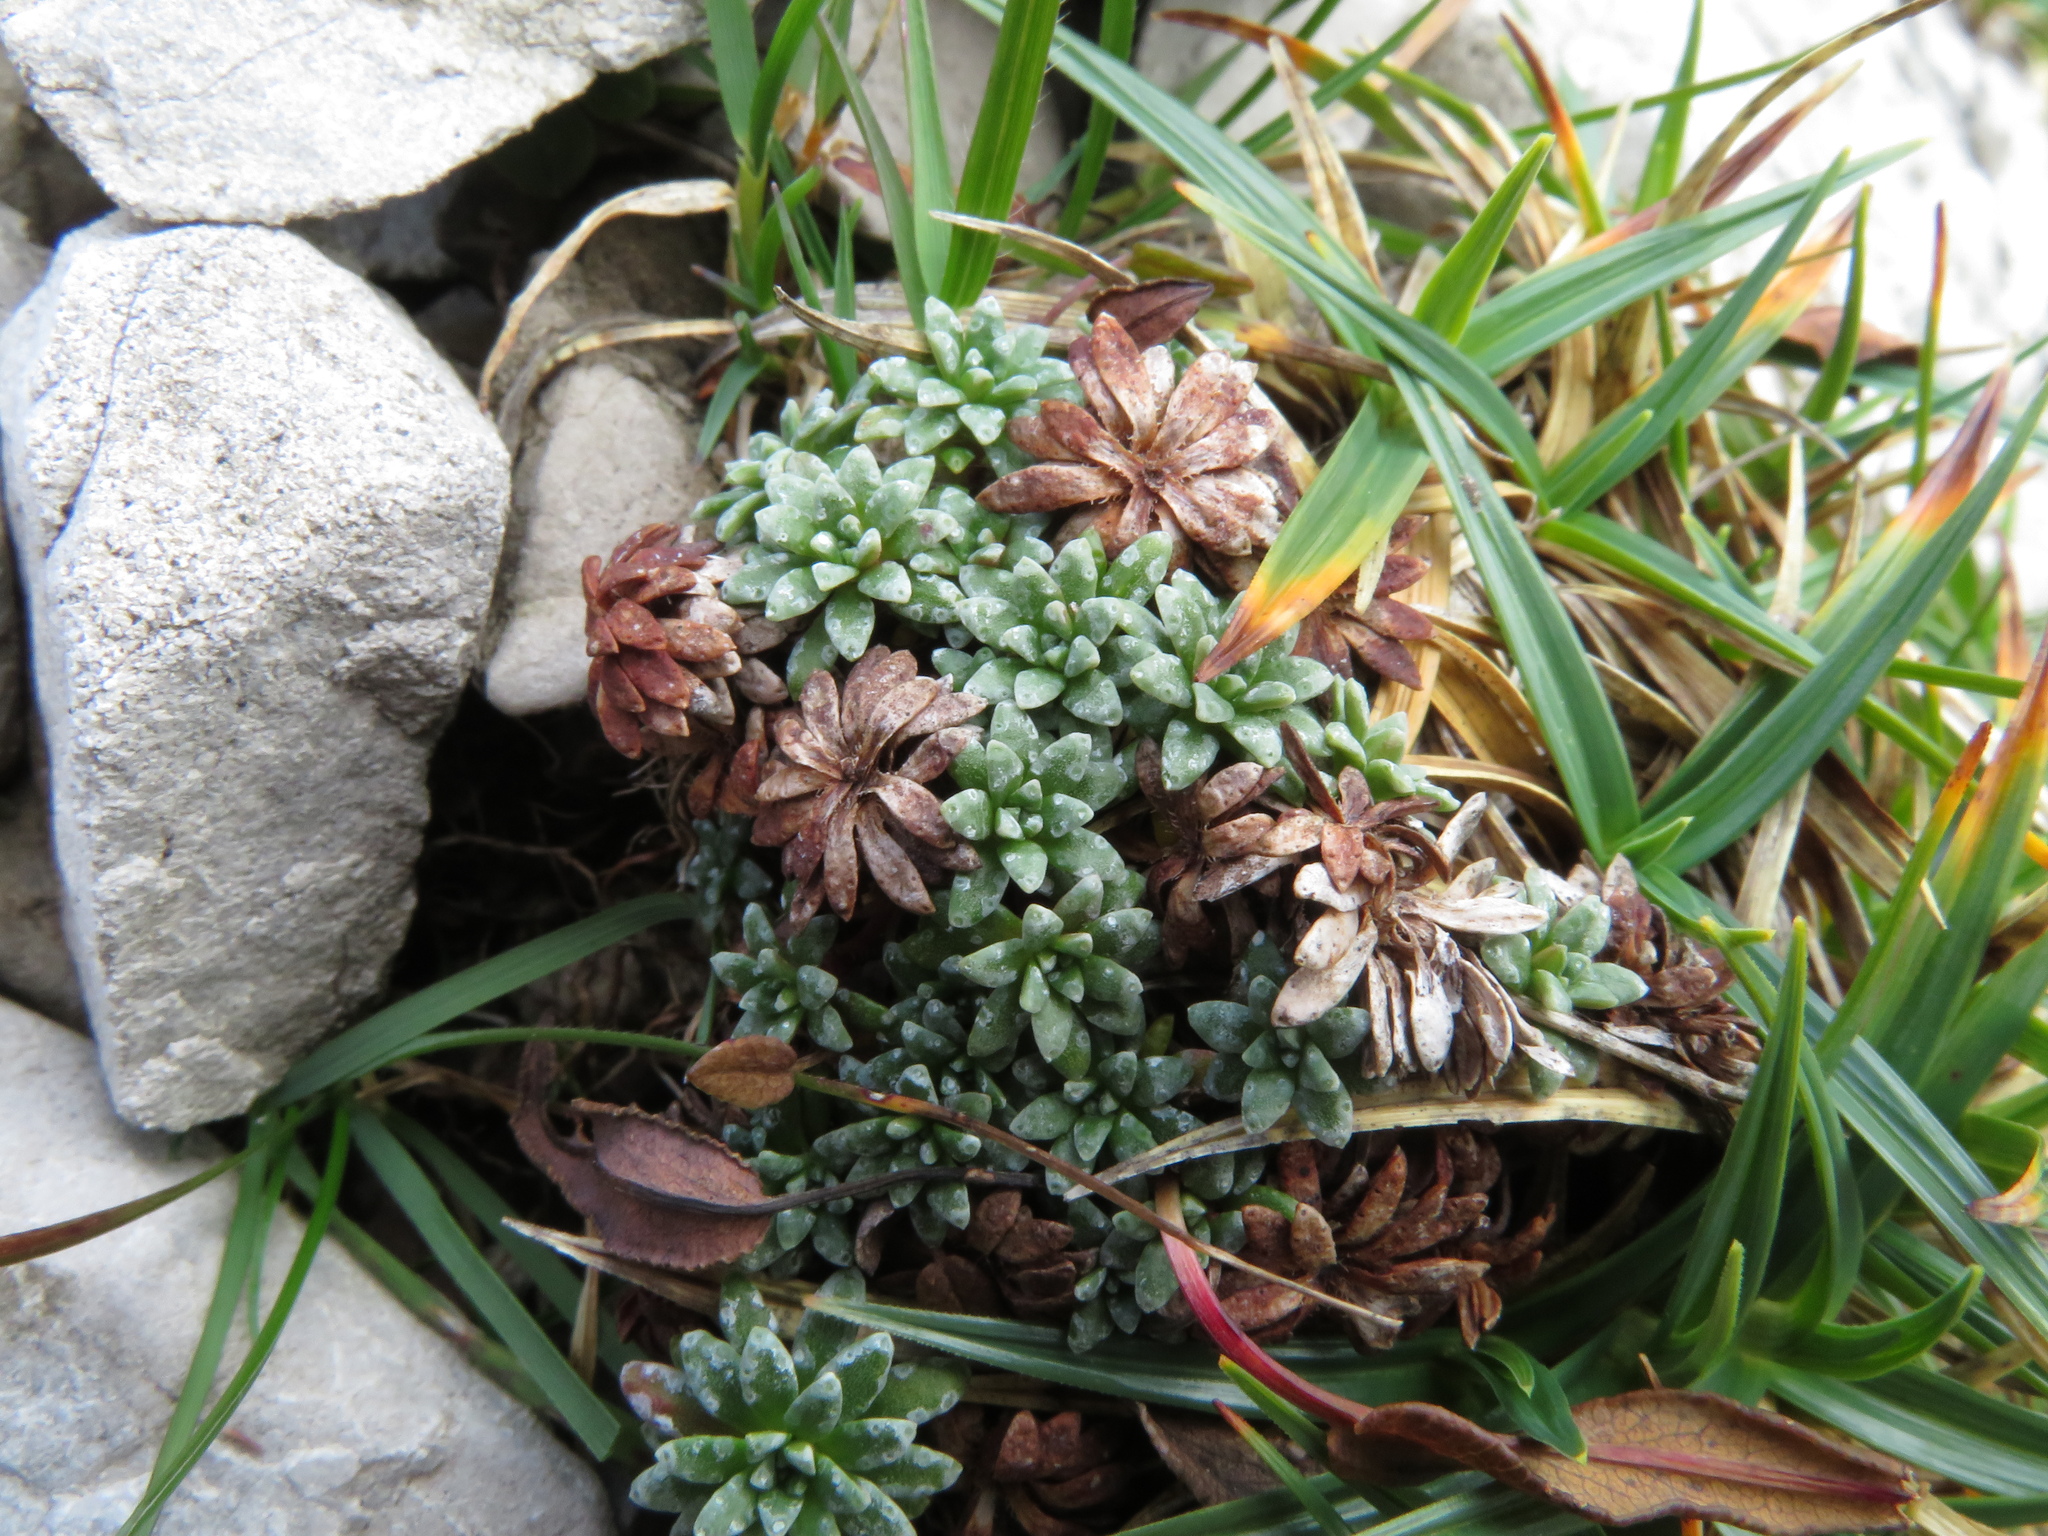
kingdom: Plantae
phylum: Tracheophyta
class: Magnoliopsida
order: Saxifragales
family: Saxifragaceae
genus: Saxifraga
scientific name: Saxifraga caesia
